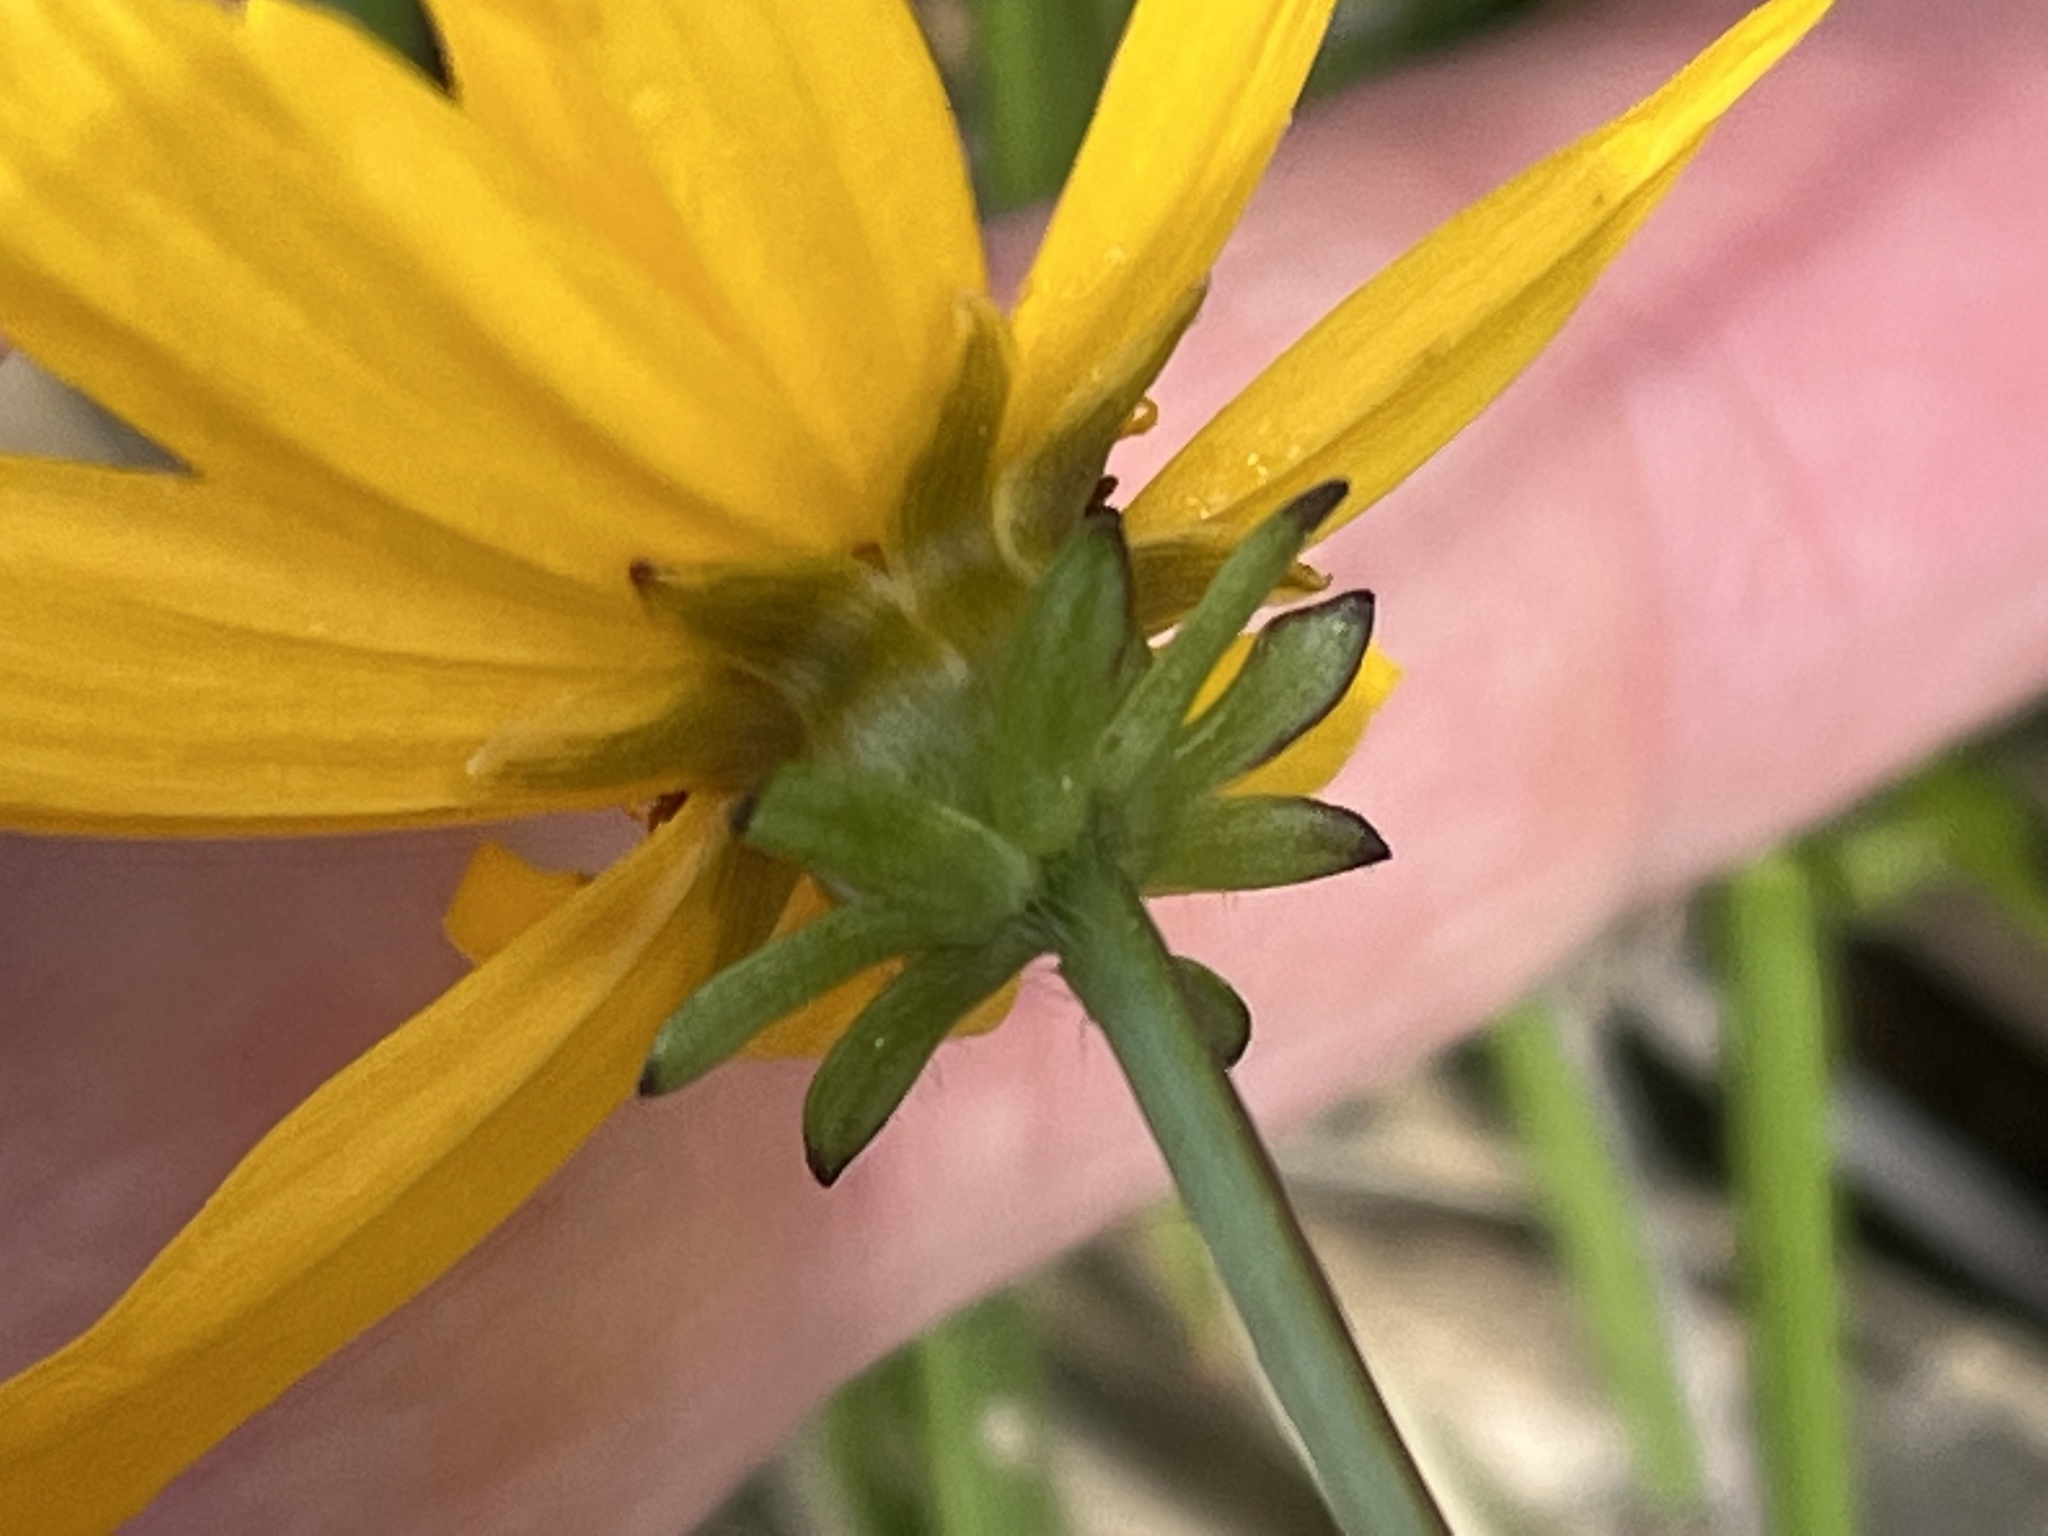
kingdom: Plantae
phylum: Tracheophyta
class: Magnoliopsida
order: Asterales
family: Asteraceae
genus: Coreopsis
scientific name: Coreopsis auriculata
